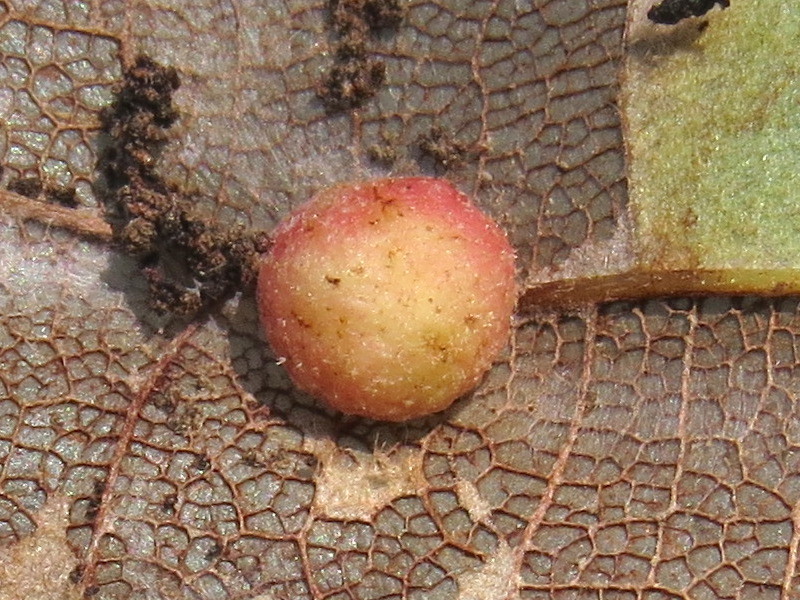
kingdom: Animalia
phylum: Arthropoda
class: Insecta
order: Hymenoptera
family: Cynipidae
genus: Philonix
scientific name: Philonix fulvicollis
